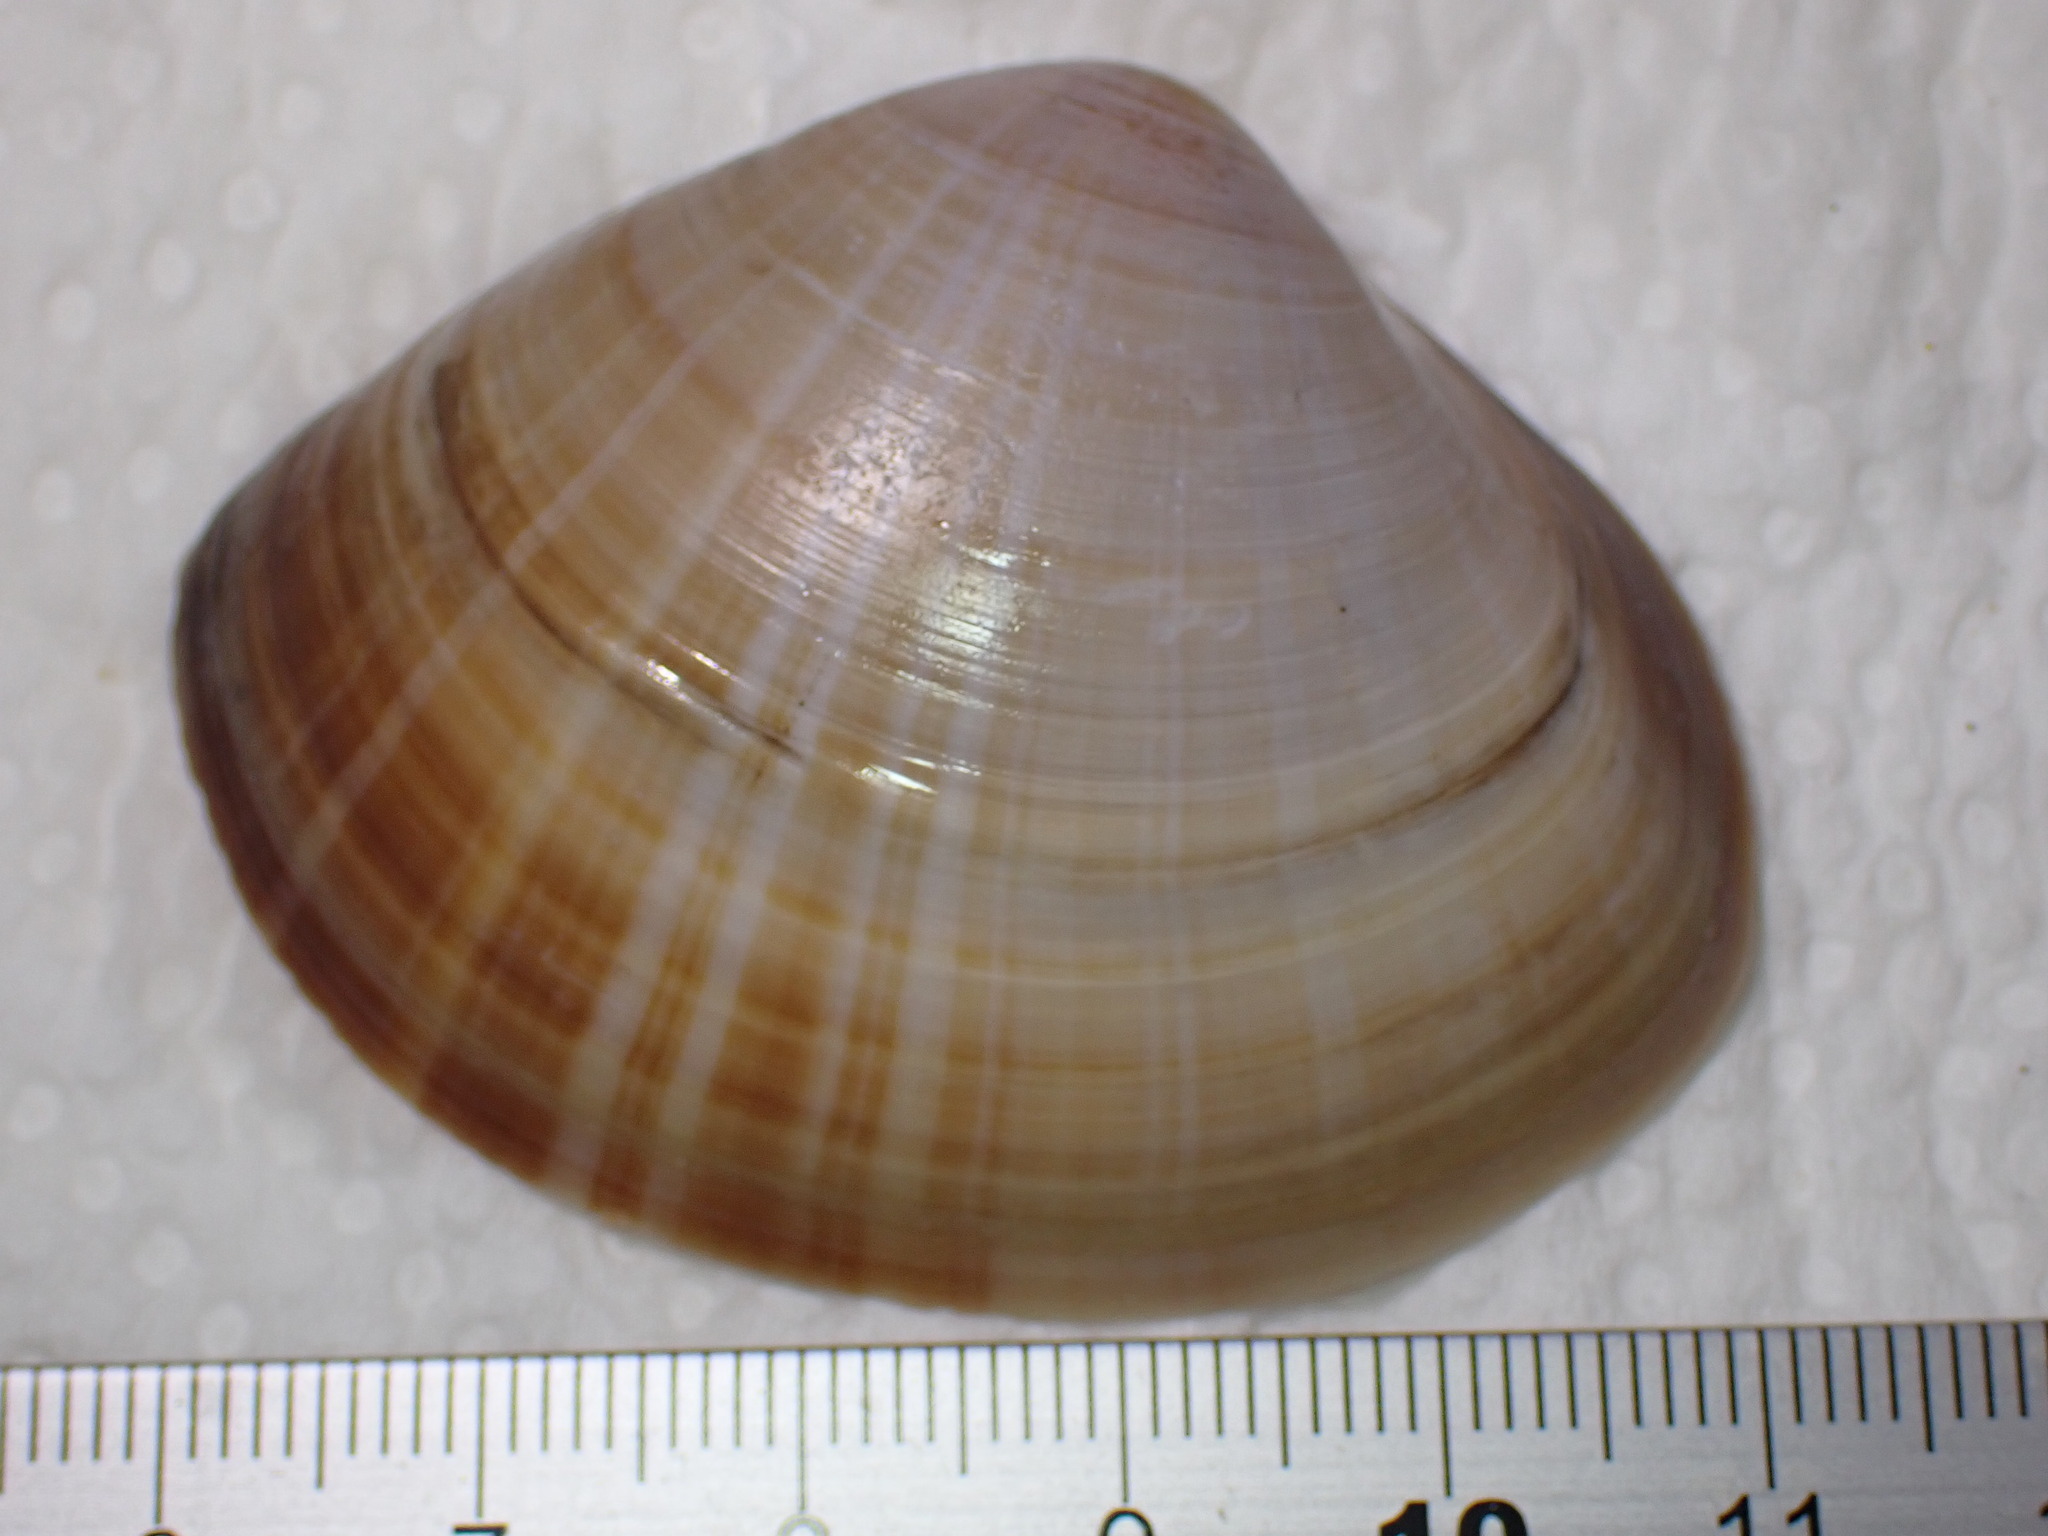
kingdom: Animalia
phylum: Mollusca
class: Bivalvia
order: Venerida
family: Mactridae
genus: Mactra
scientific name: Mactra stultorum
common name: Rayed trough shell
